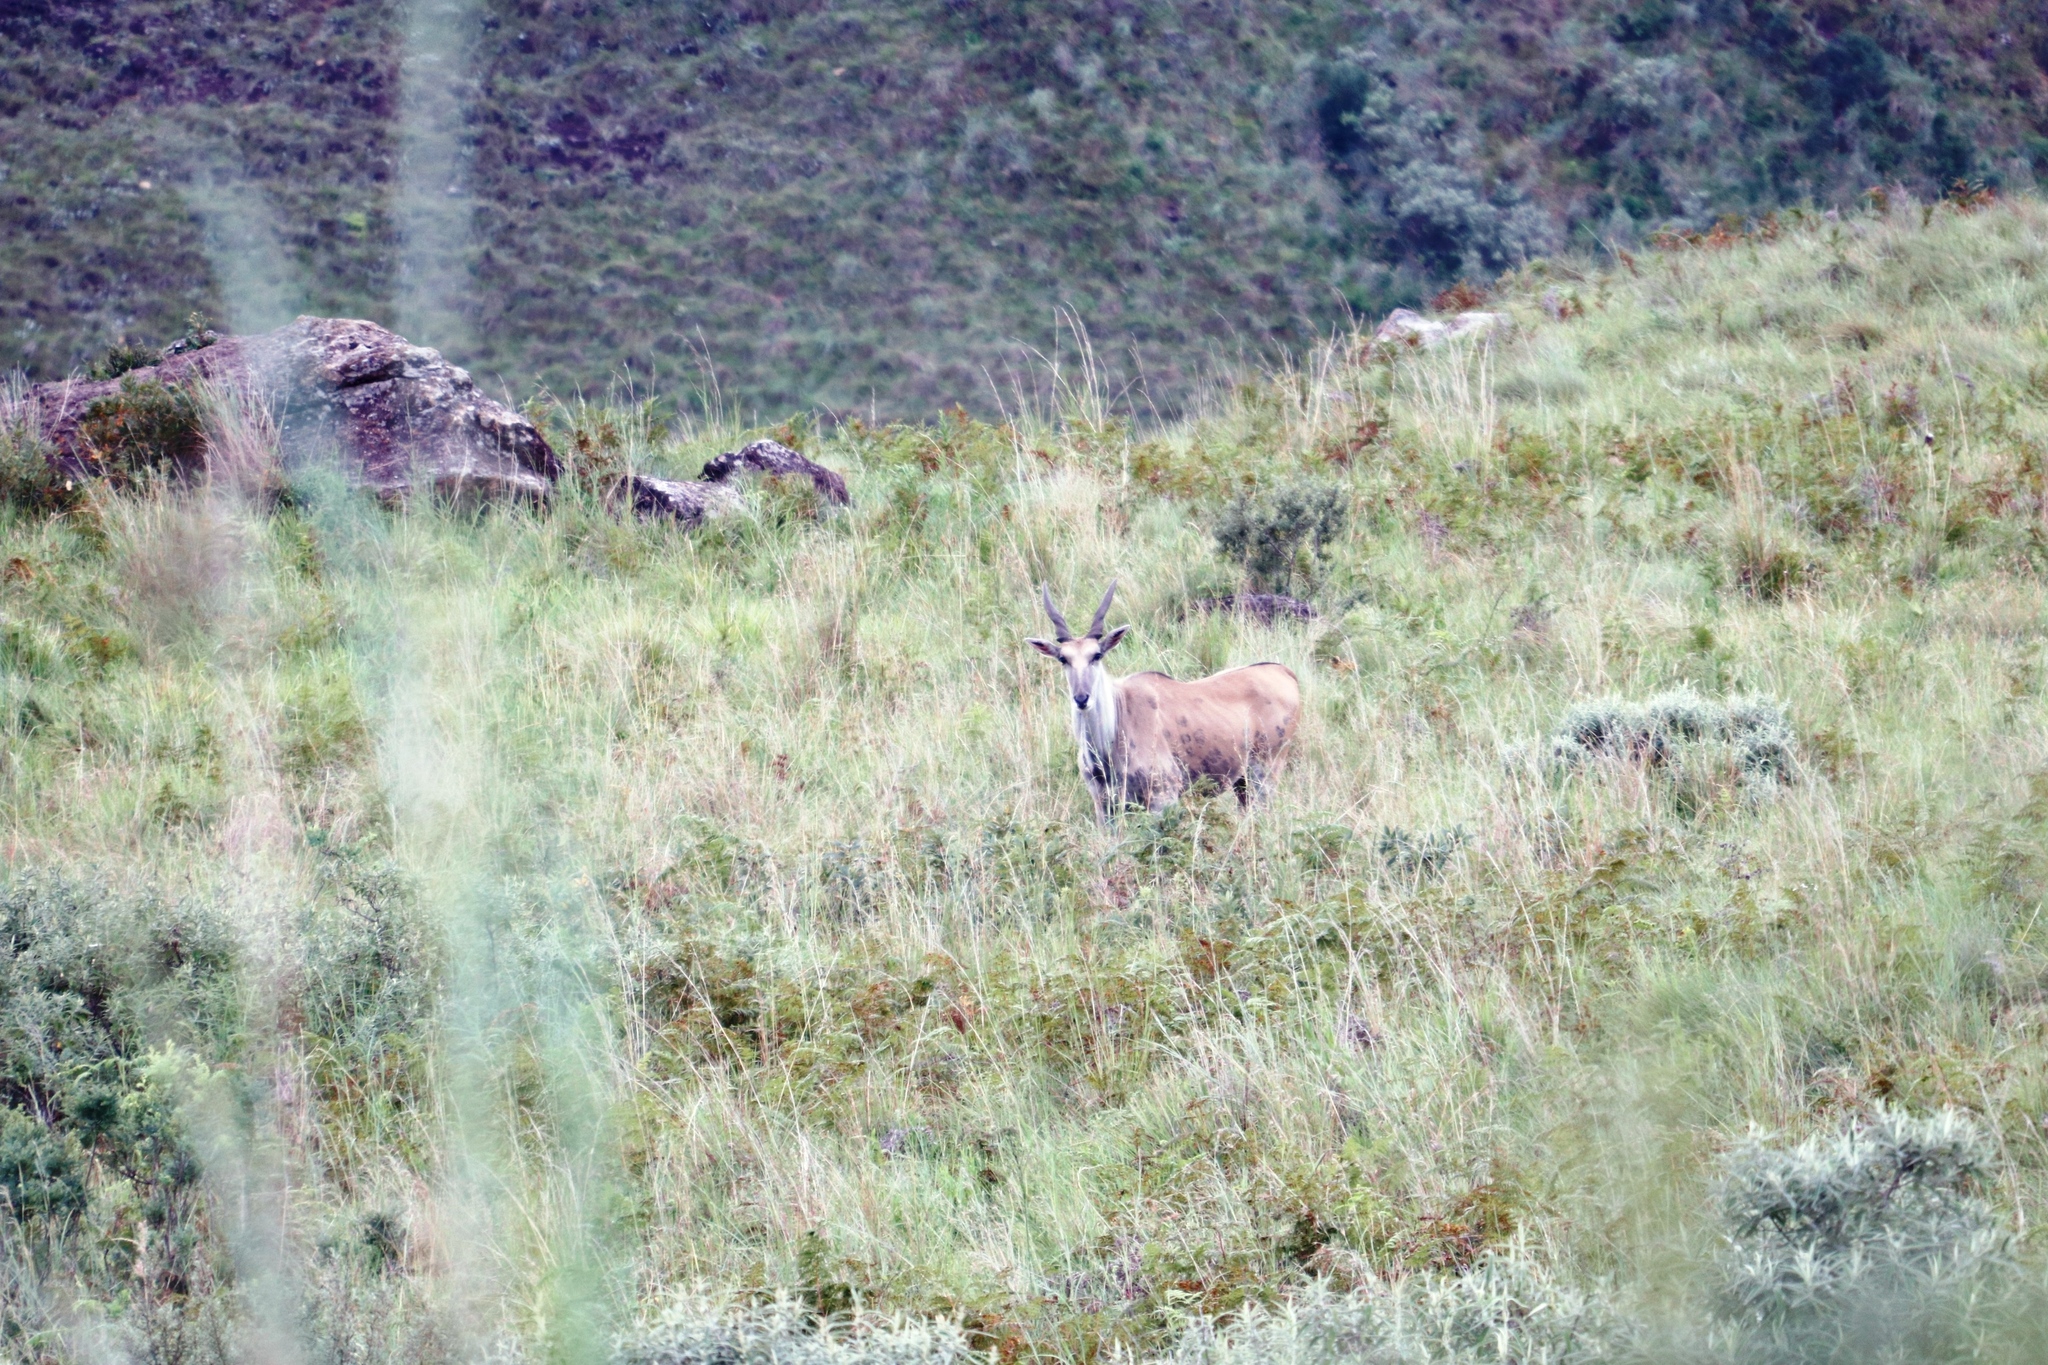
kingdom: Animalia
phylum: Chordata
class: Mammalia
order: Artiodactyla
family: Bovidae
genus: Taurotragus
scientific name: Taurotragus oryx
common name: Common eland
